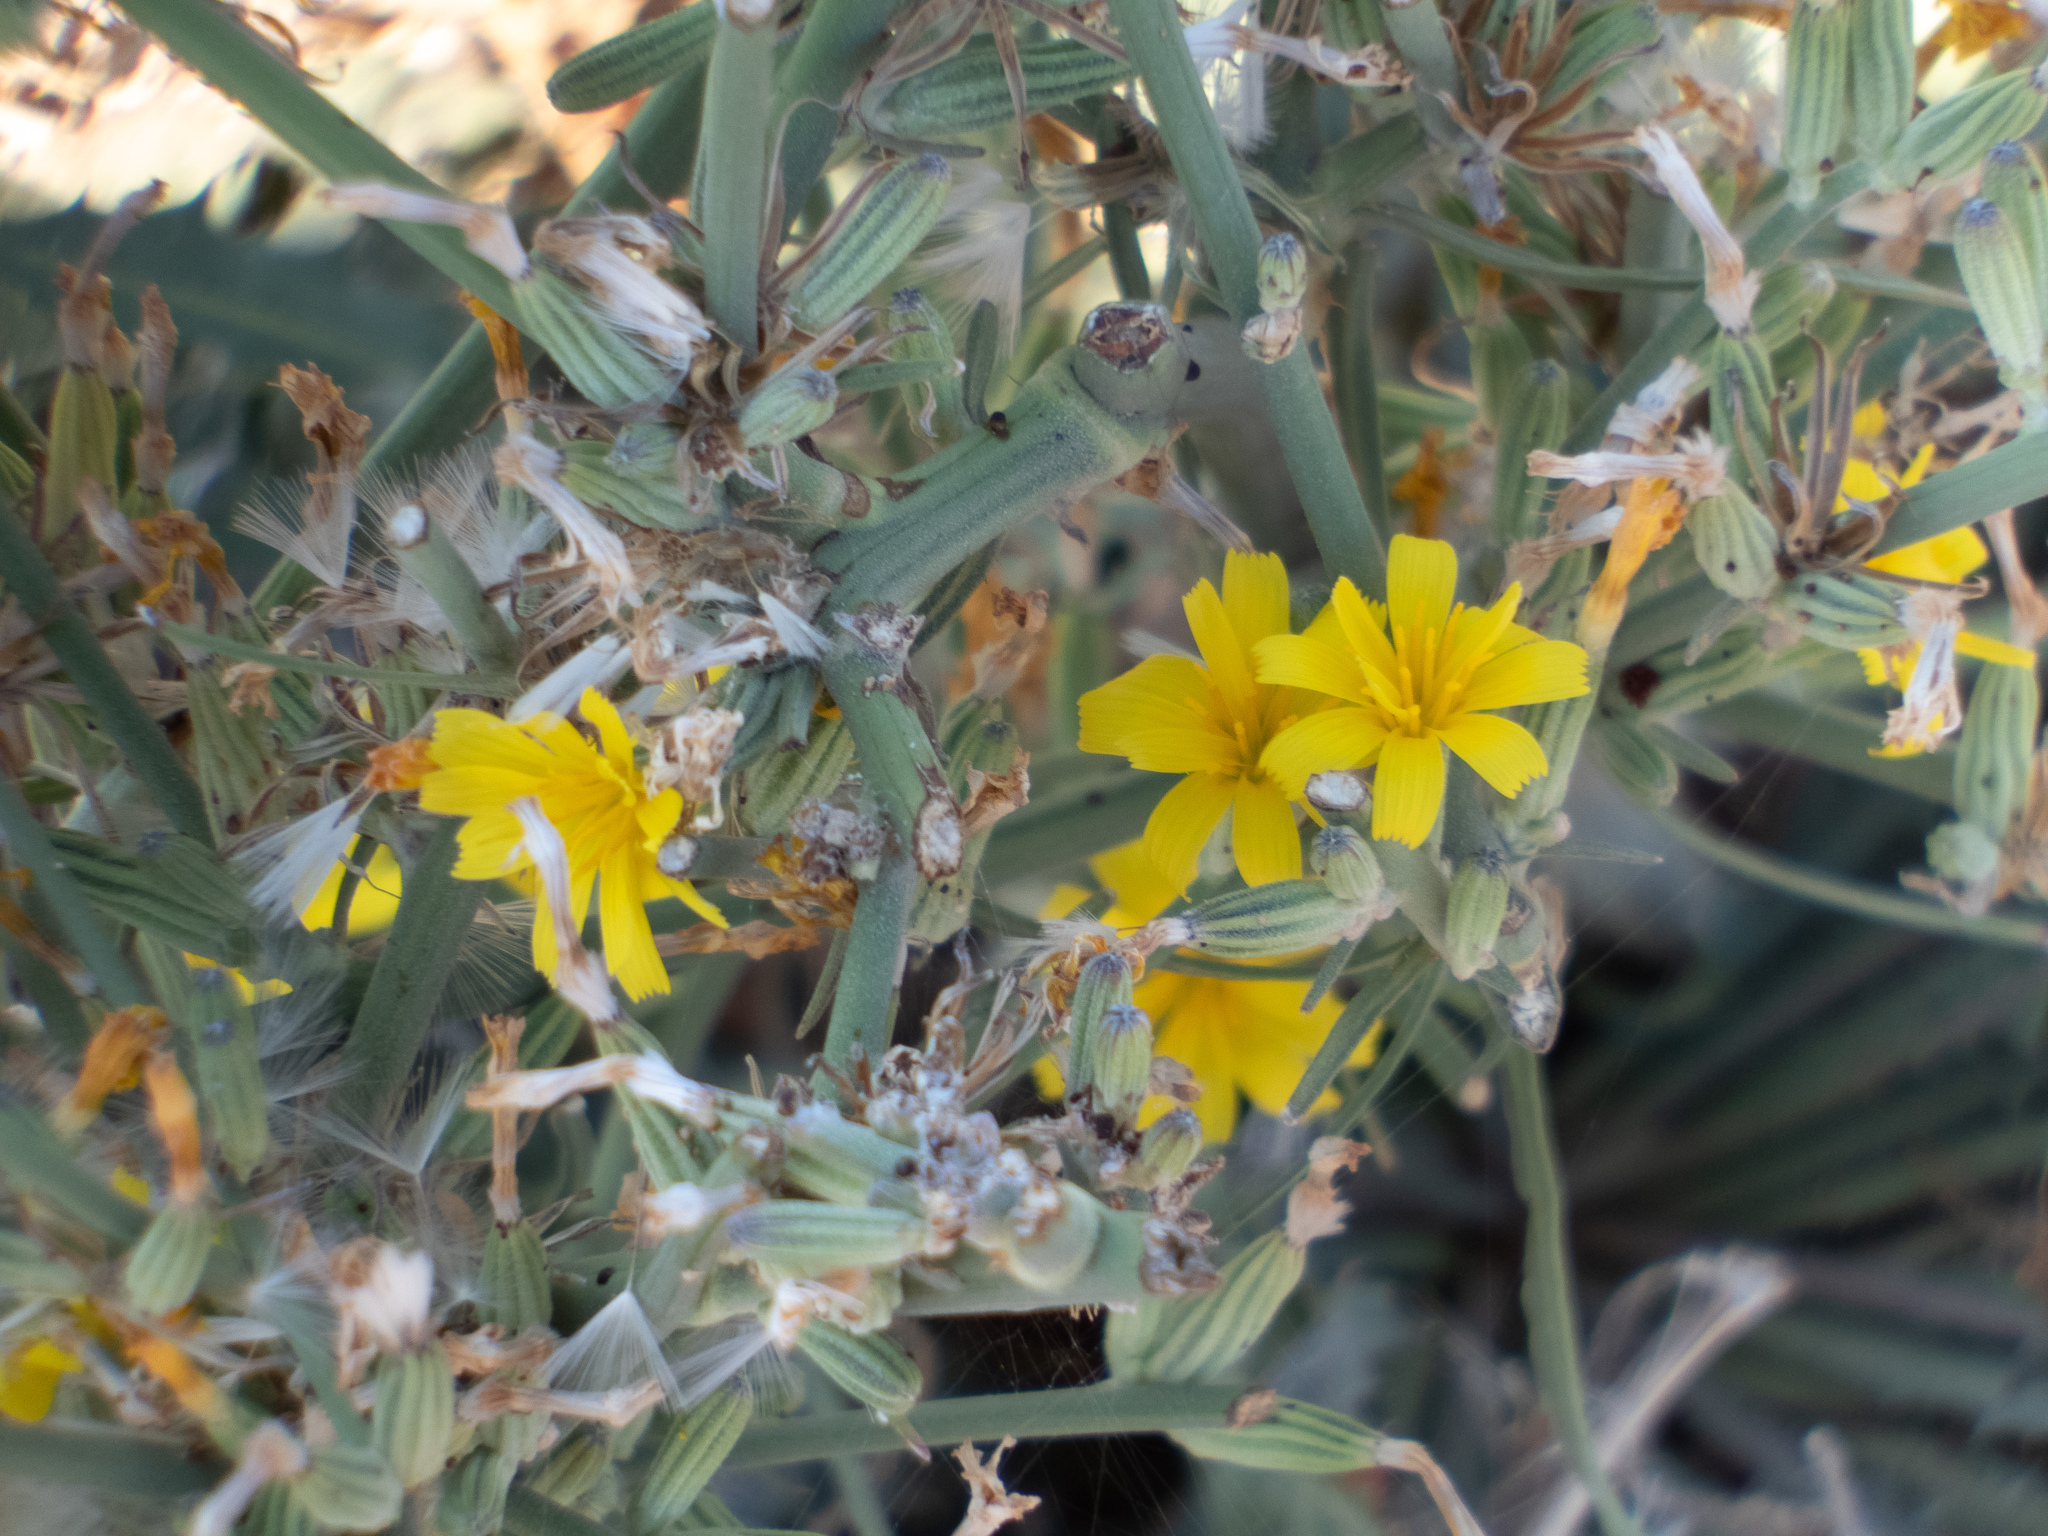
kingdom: Plantae
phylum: Tracheophyta
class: Magnoliopsida
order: Asterales
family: Asteraceae
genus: Chondrilla
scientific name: Chondrilla juncea
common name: Skeleton weed
